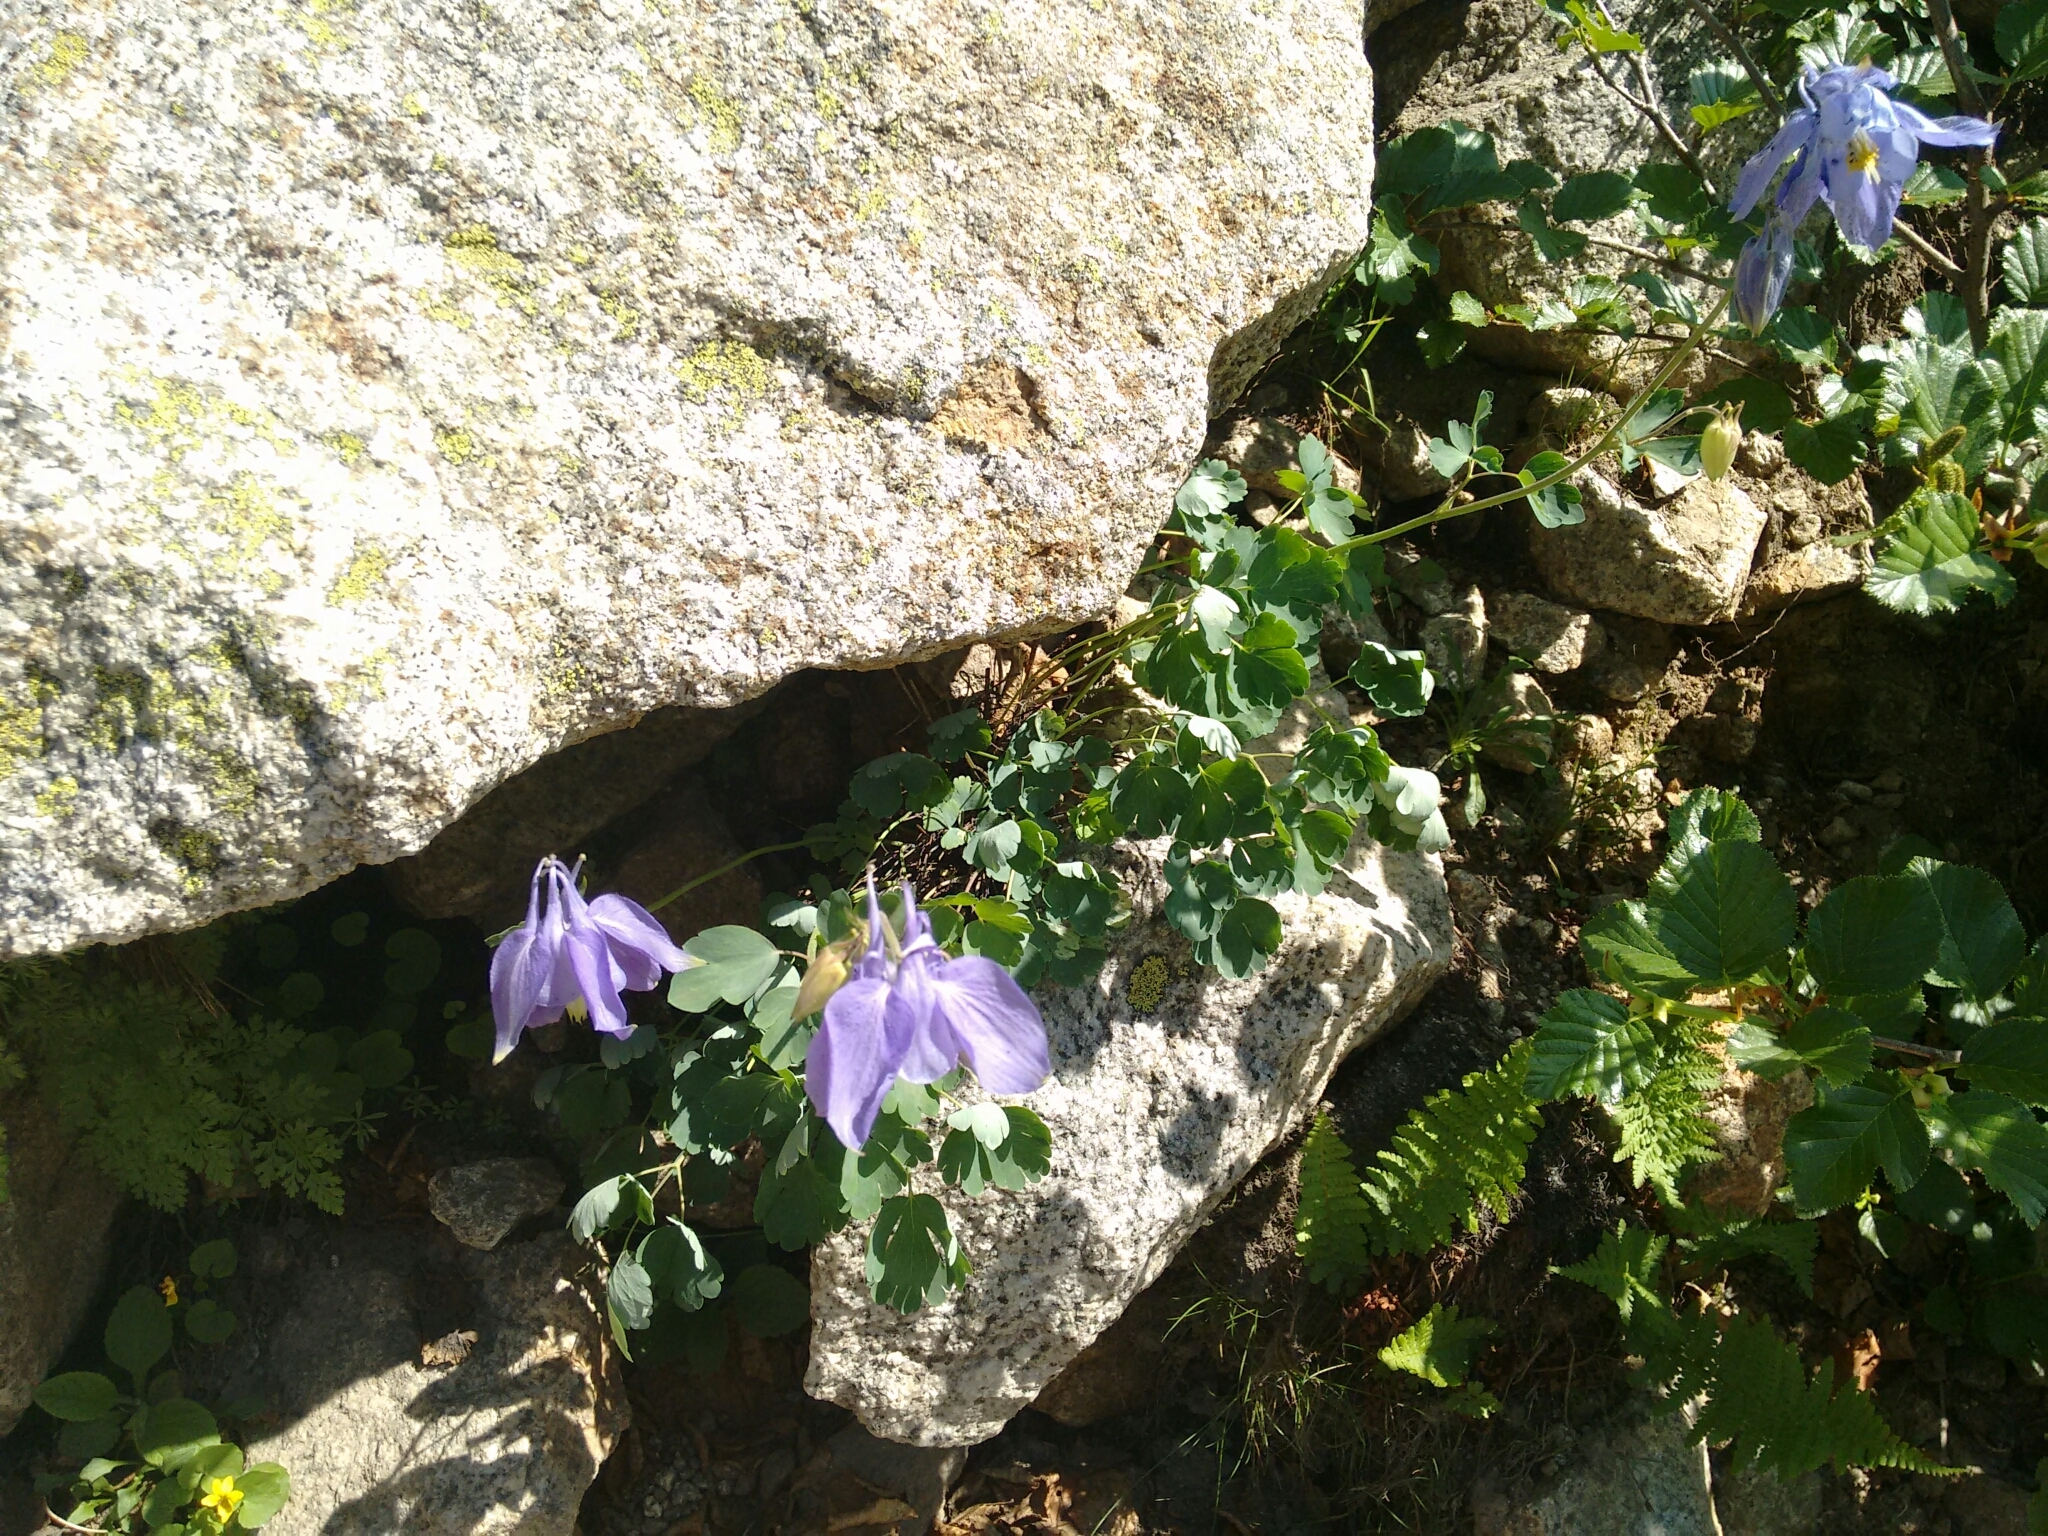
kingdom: Plantae
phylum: Tracheophyta
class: Magnoliopsida
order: Ranunculales
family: Ranunculaceae
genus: Aquilegia
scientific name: Aquilegia bernardii
